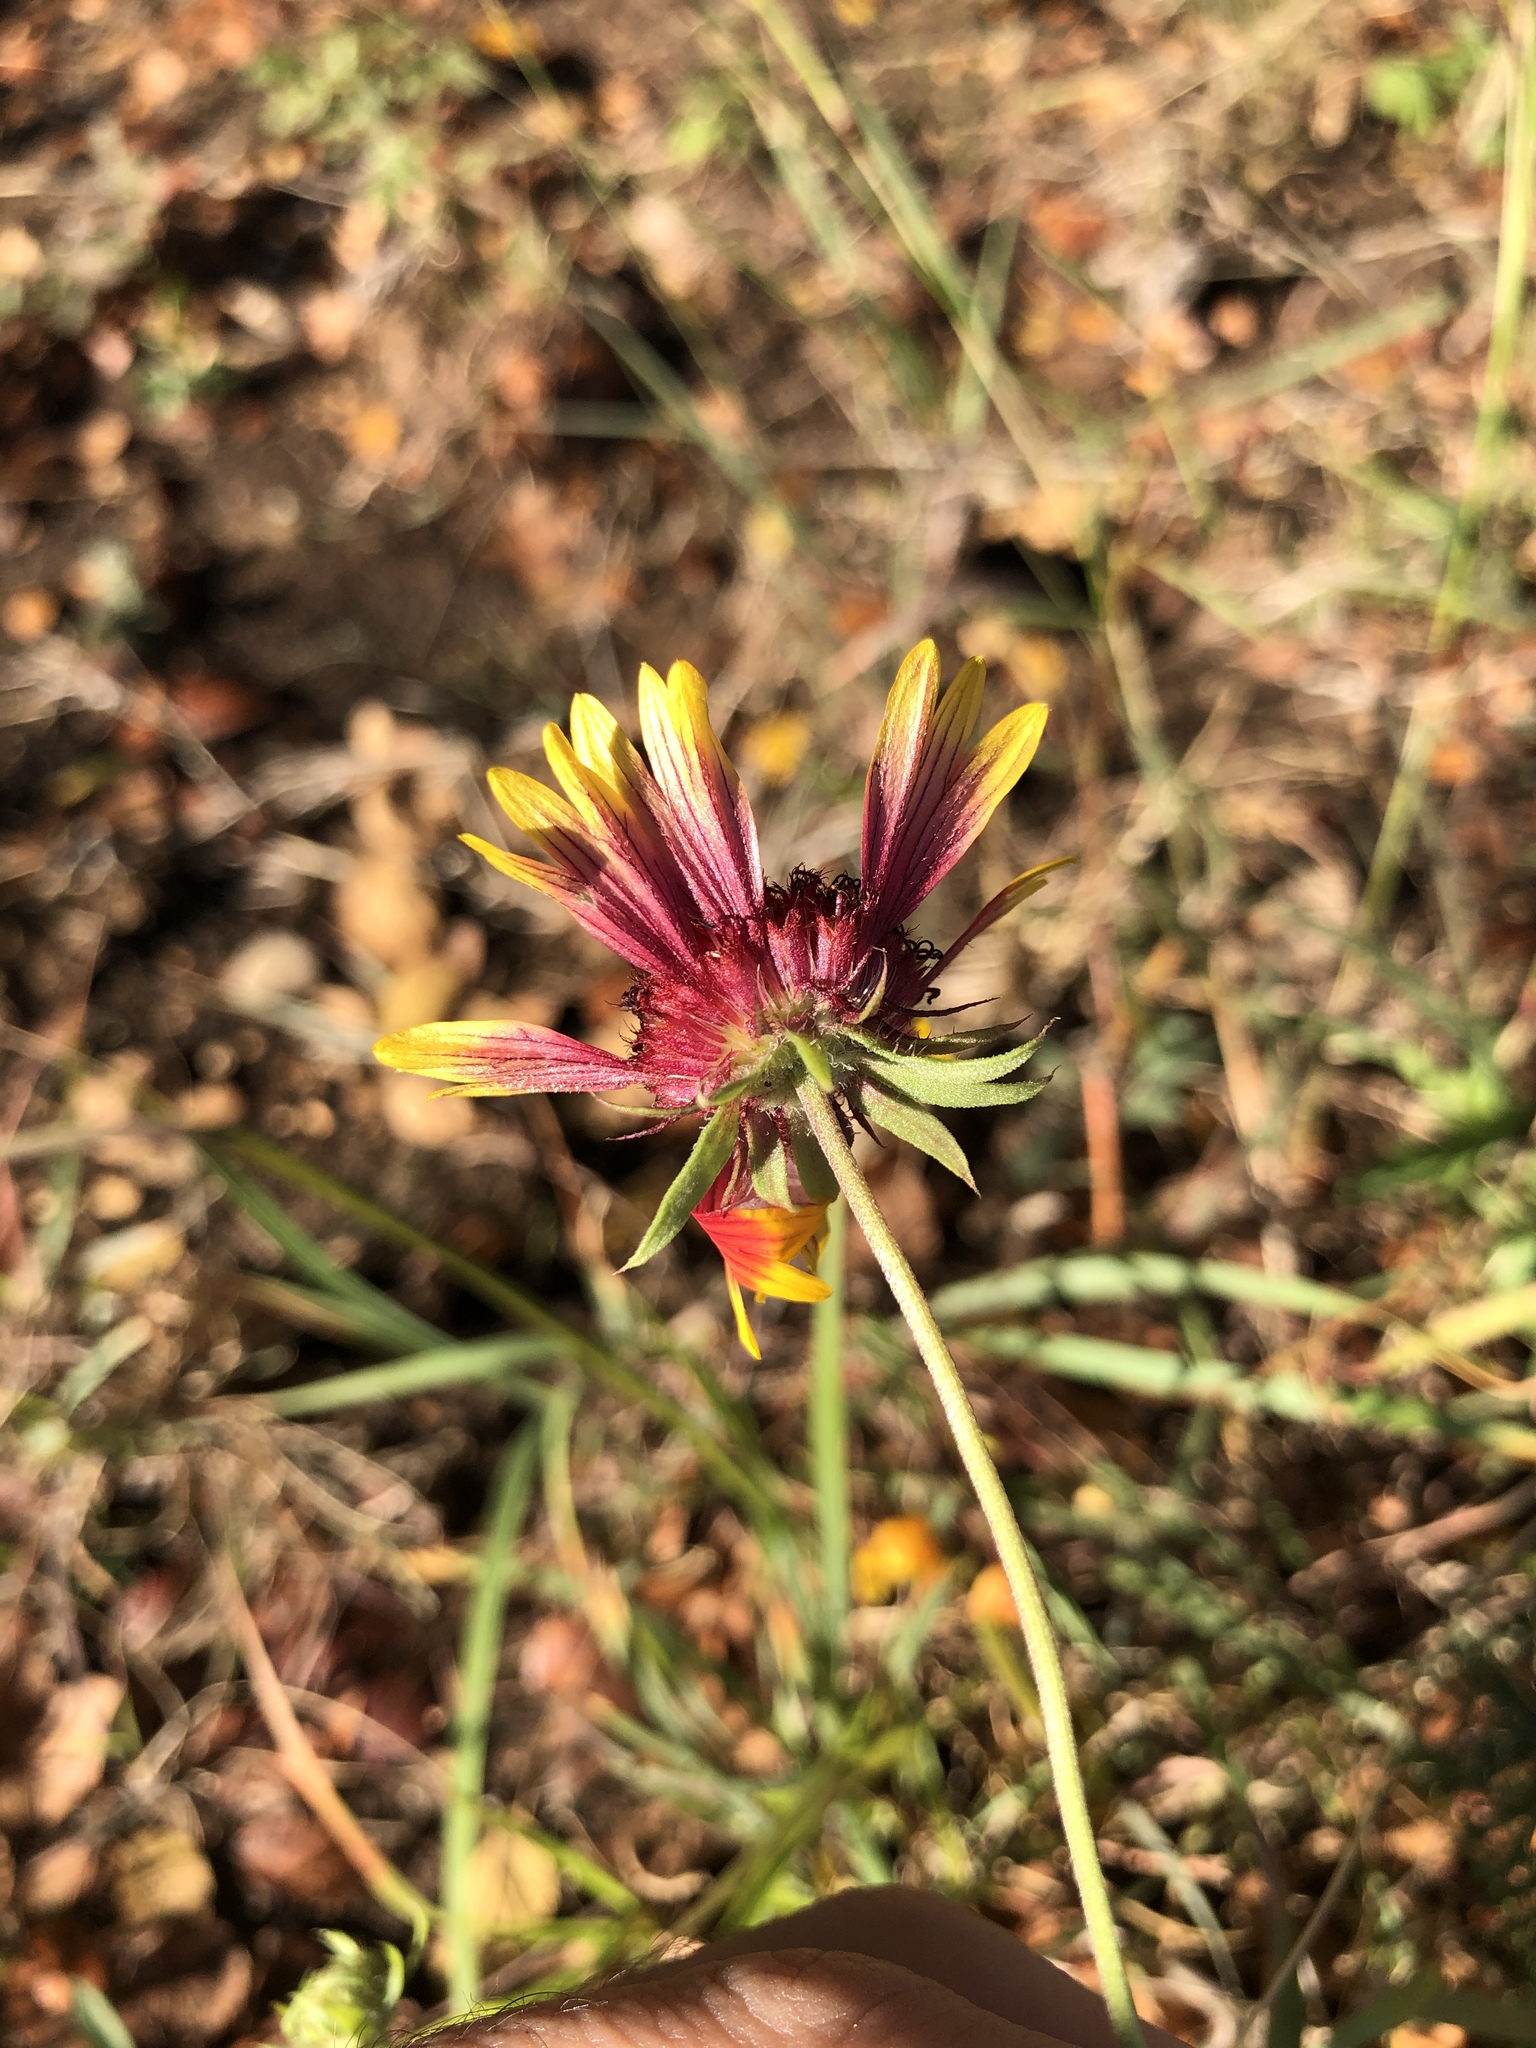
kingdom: Plantae
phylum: Tracheophyta
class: Magnoliopsida
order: Asterales
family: Asteraceae
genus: Gaillardia
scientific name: Gaillardia pulchella
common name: Firewheel
